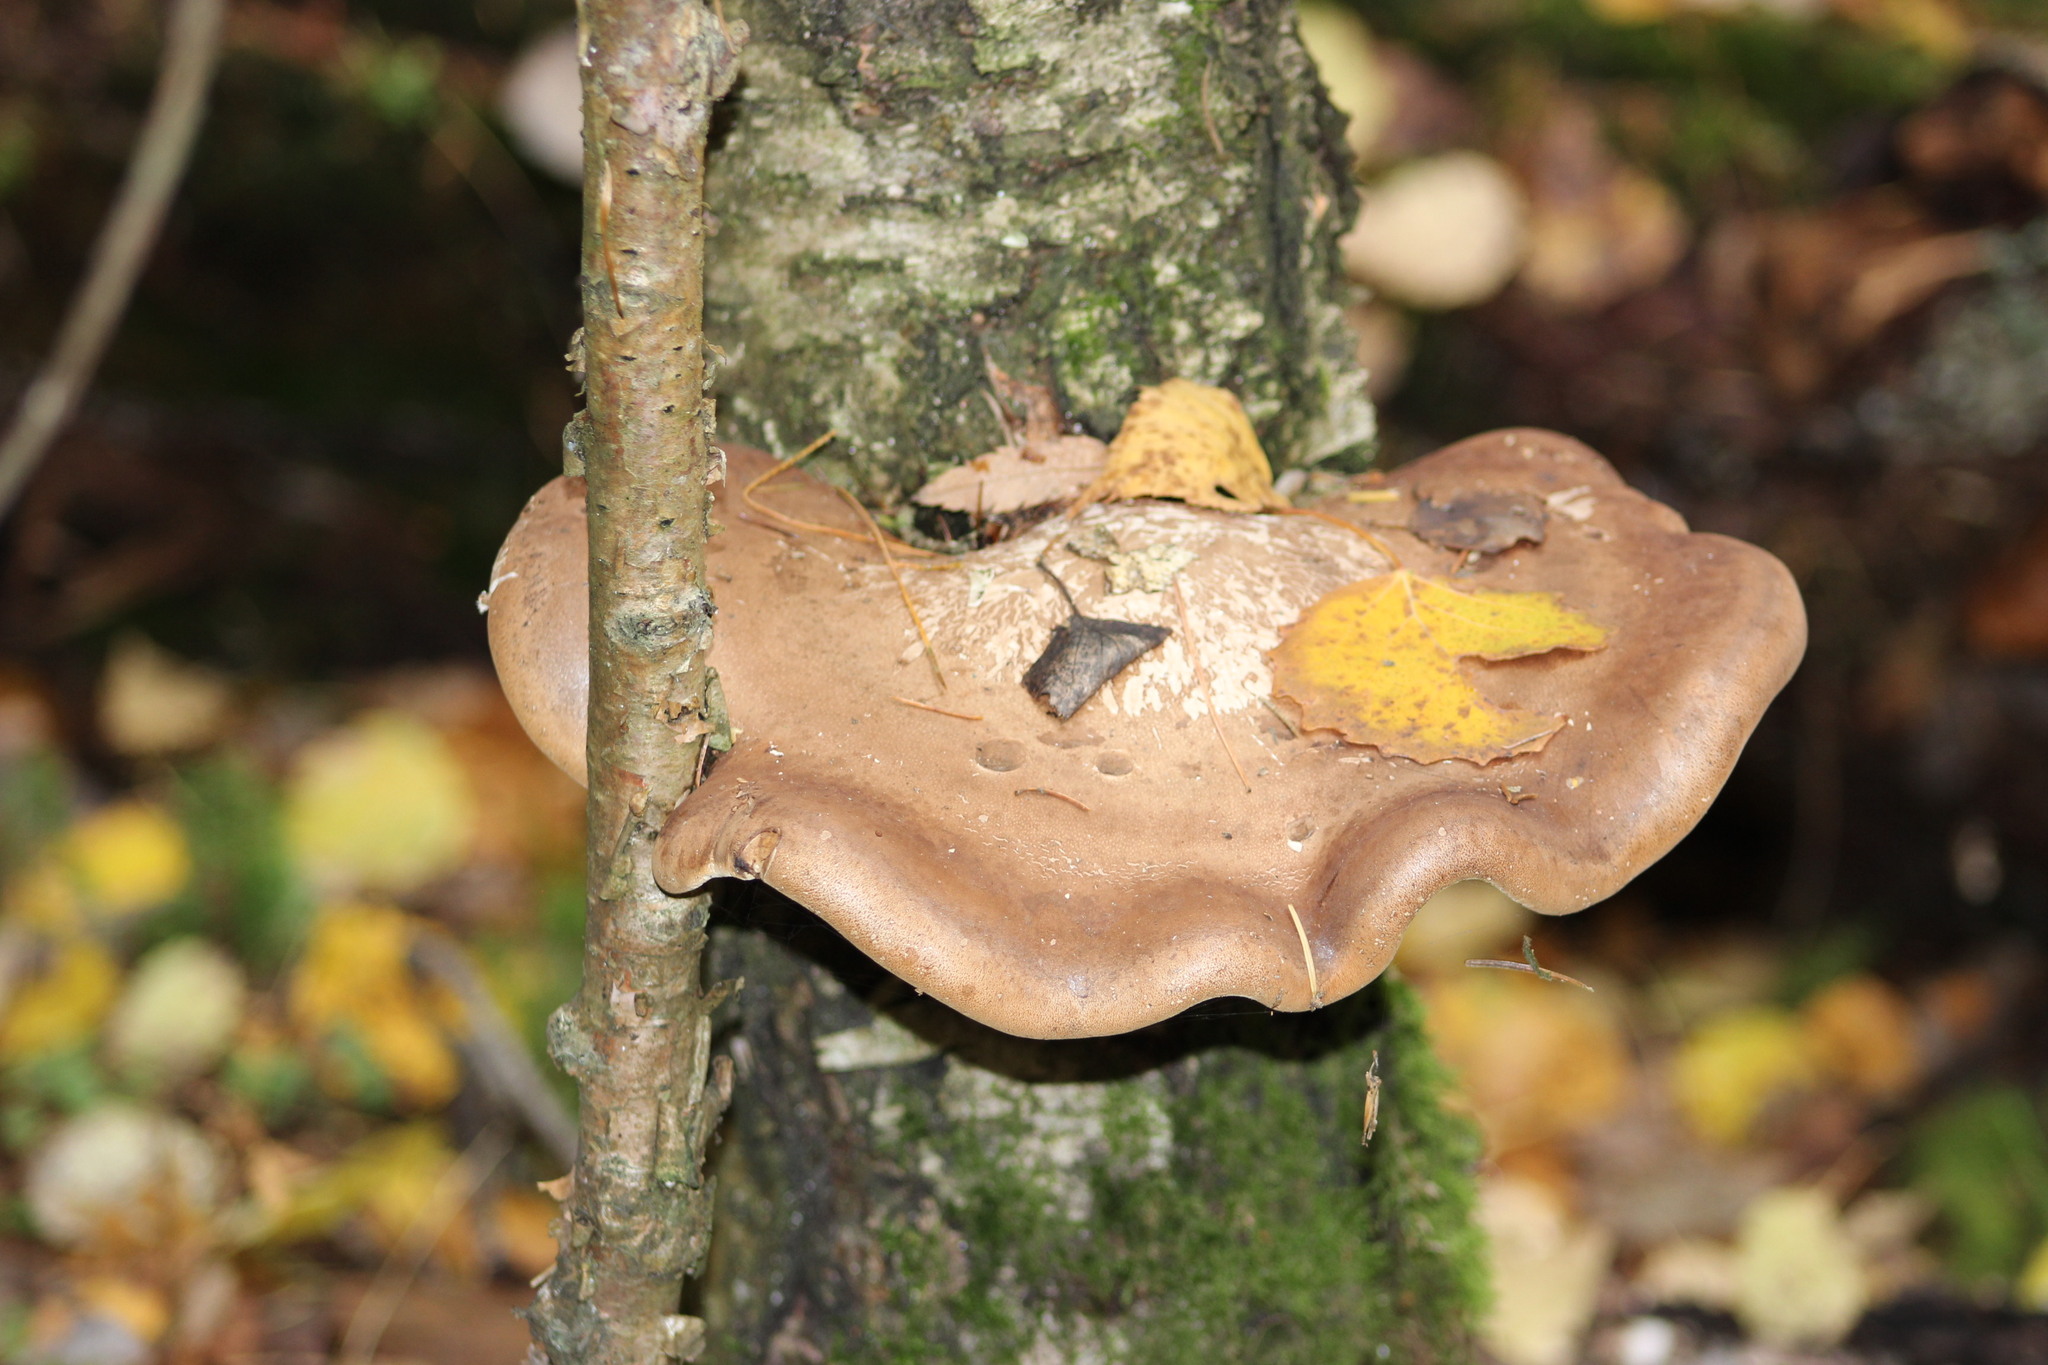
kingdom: Fungi
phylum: Basidiomycota
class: Agaricomycetes
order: Polyporales
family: Fomitopsidaceae
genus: Fomitopsis
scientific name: Fomitopsis betulina
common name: Birch polypore
